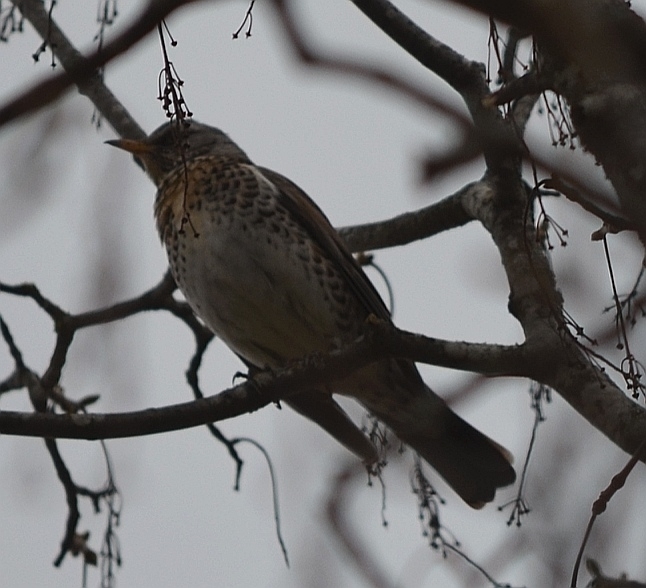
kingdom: Animalia
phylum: Chordata
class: Aves
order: Passeriformes
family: Turdidae
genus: Turdus
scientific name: Turdus pilaris
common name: Fieldfare
